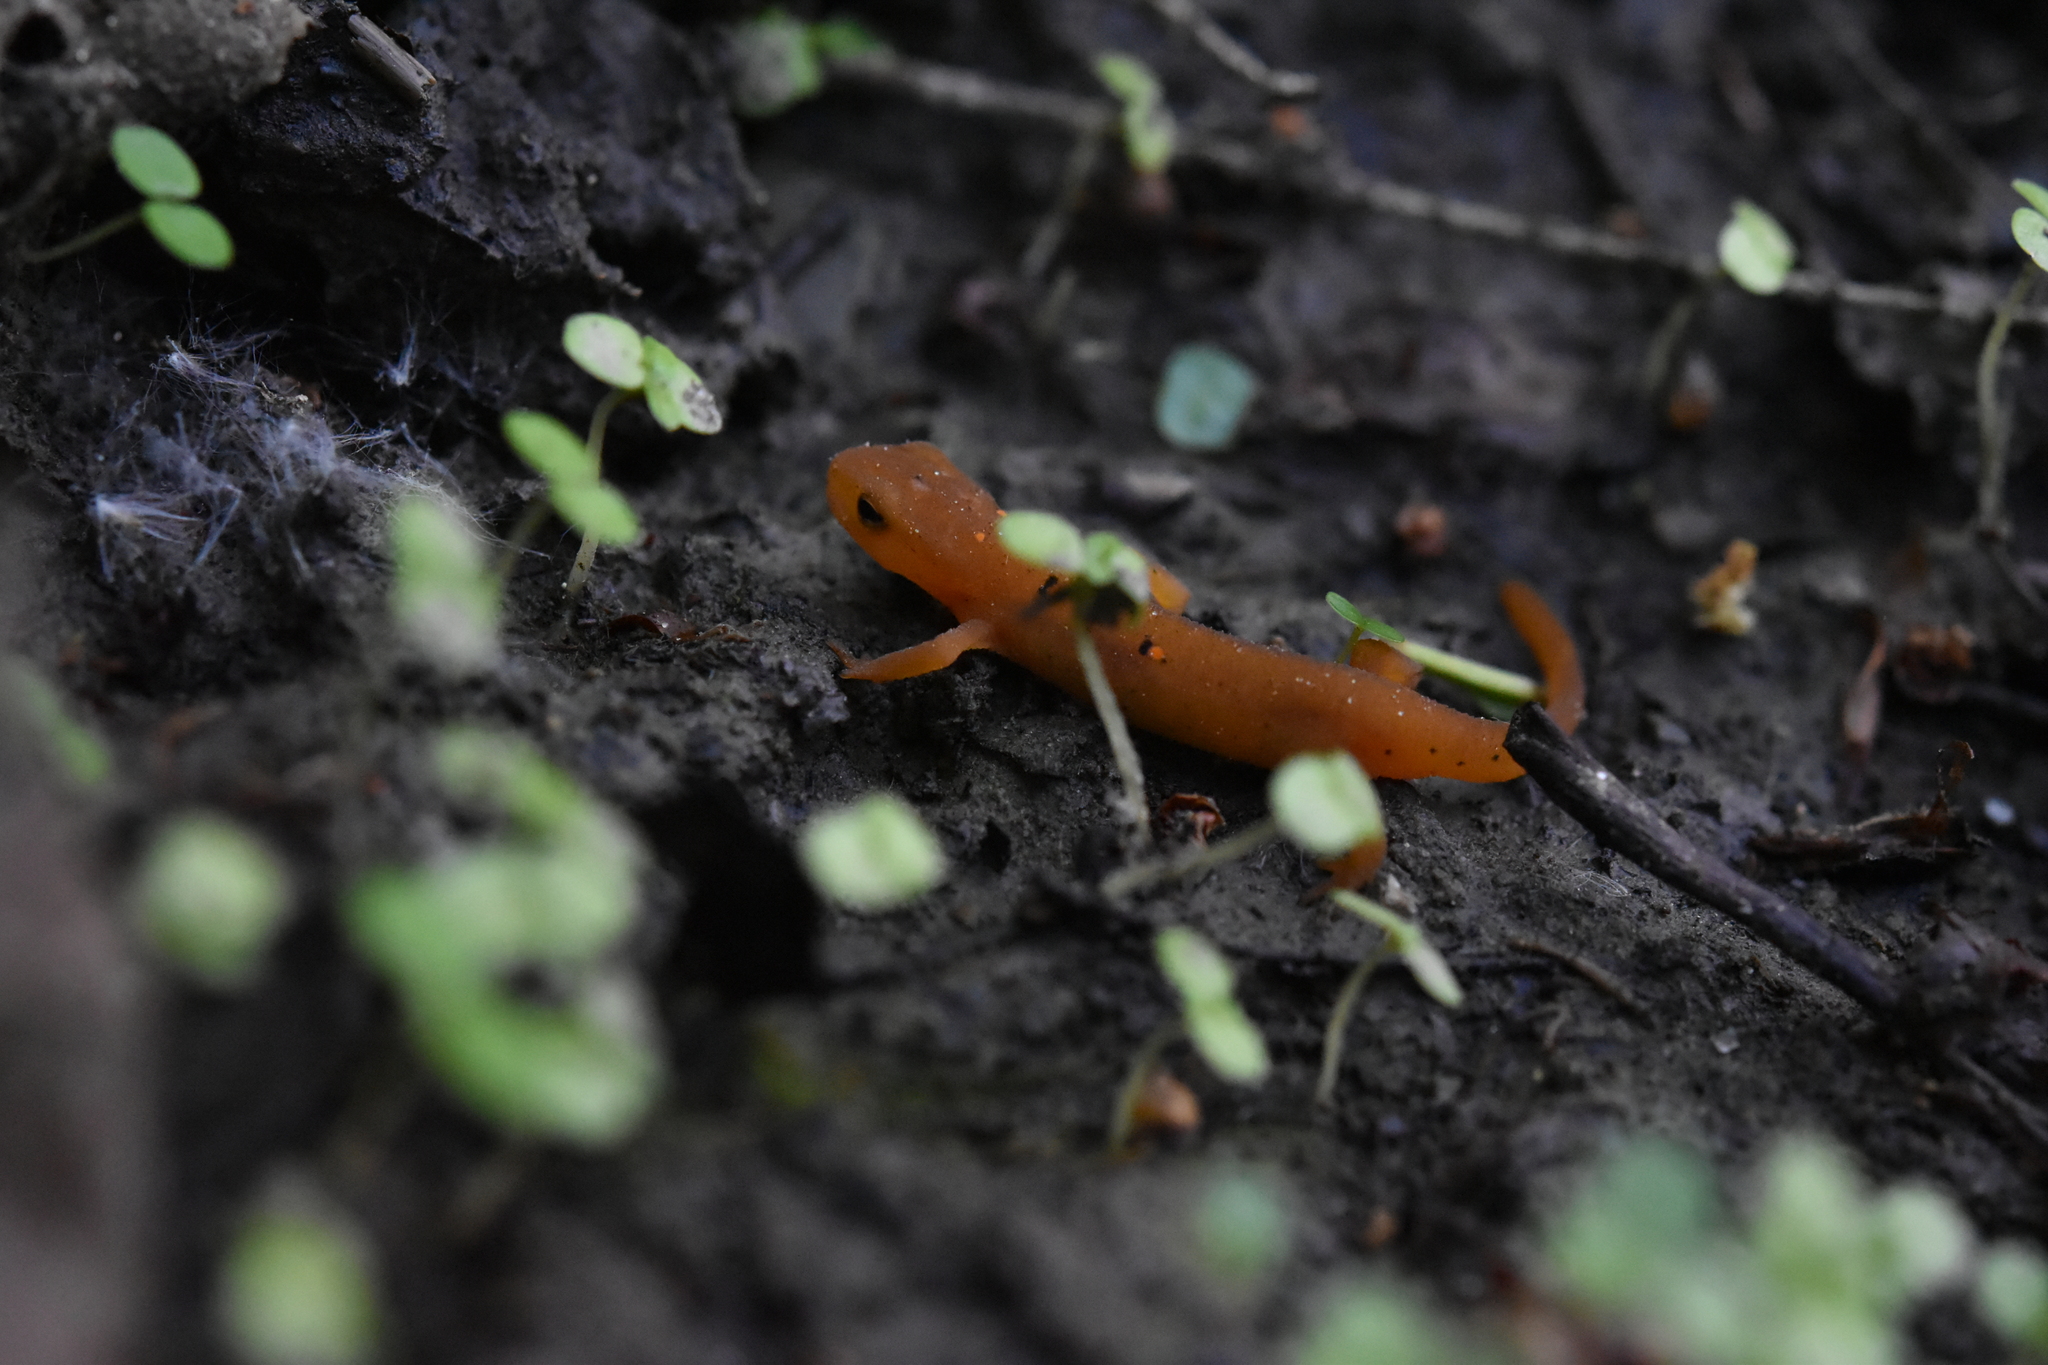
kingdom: Animalia
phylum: Chordata
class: Amphibia
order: Caudata
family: Salamandridae
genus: Notophthalmus
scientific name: Notophthalmus viridescens
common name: Eastern newt
